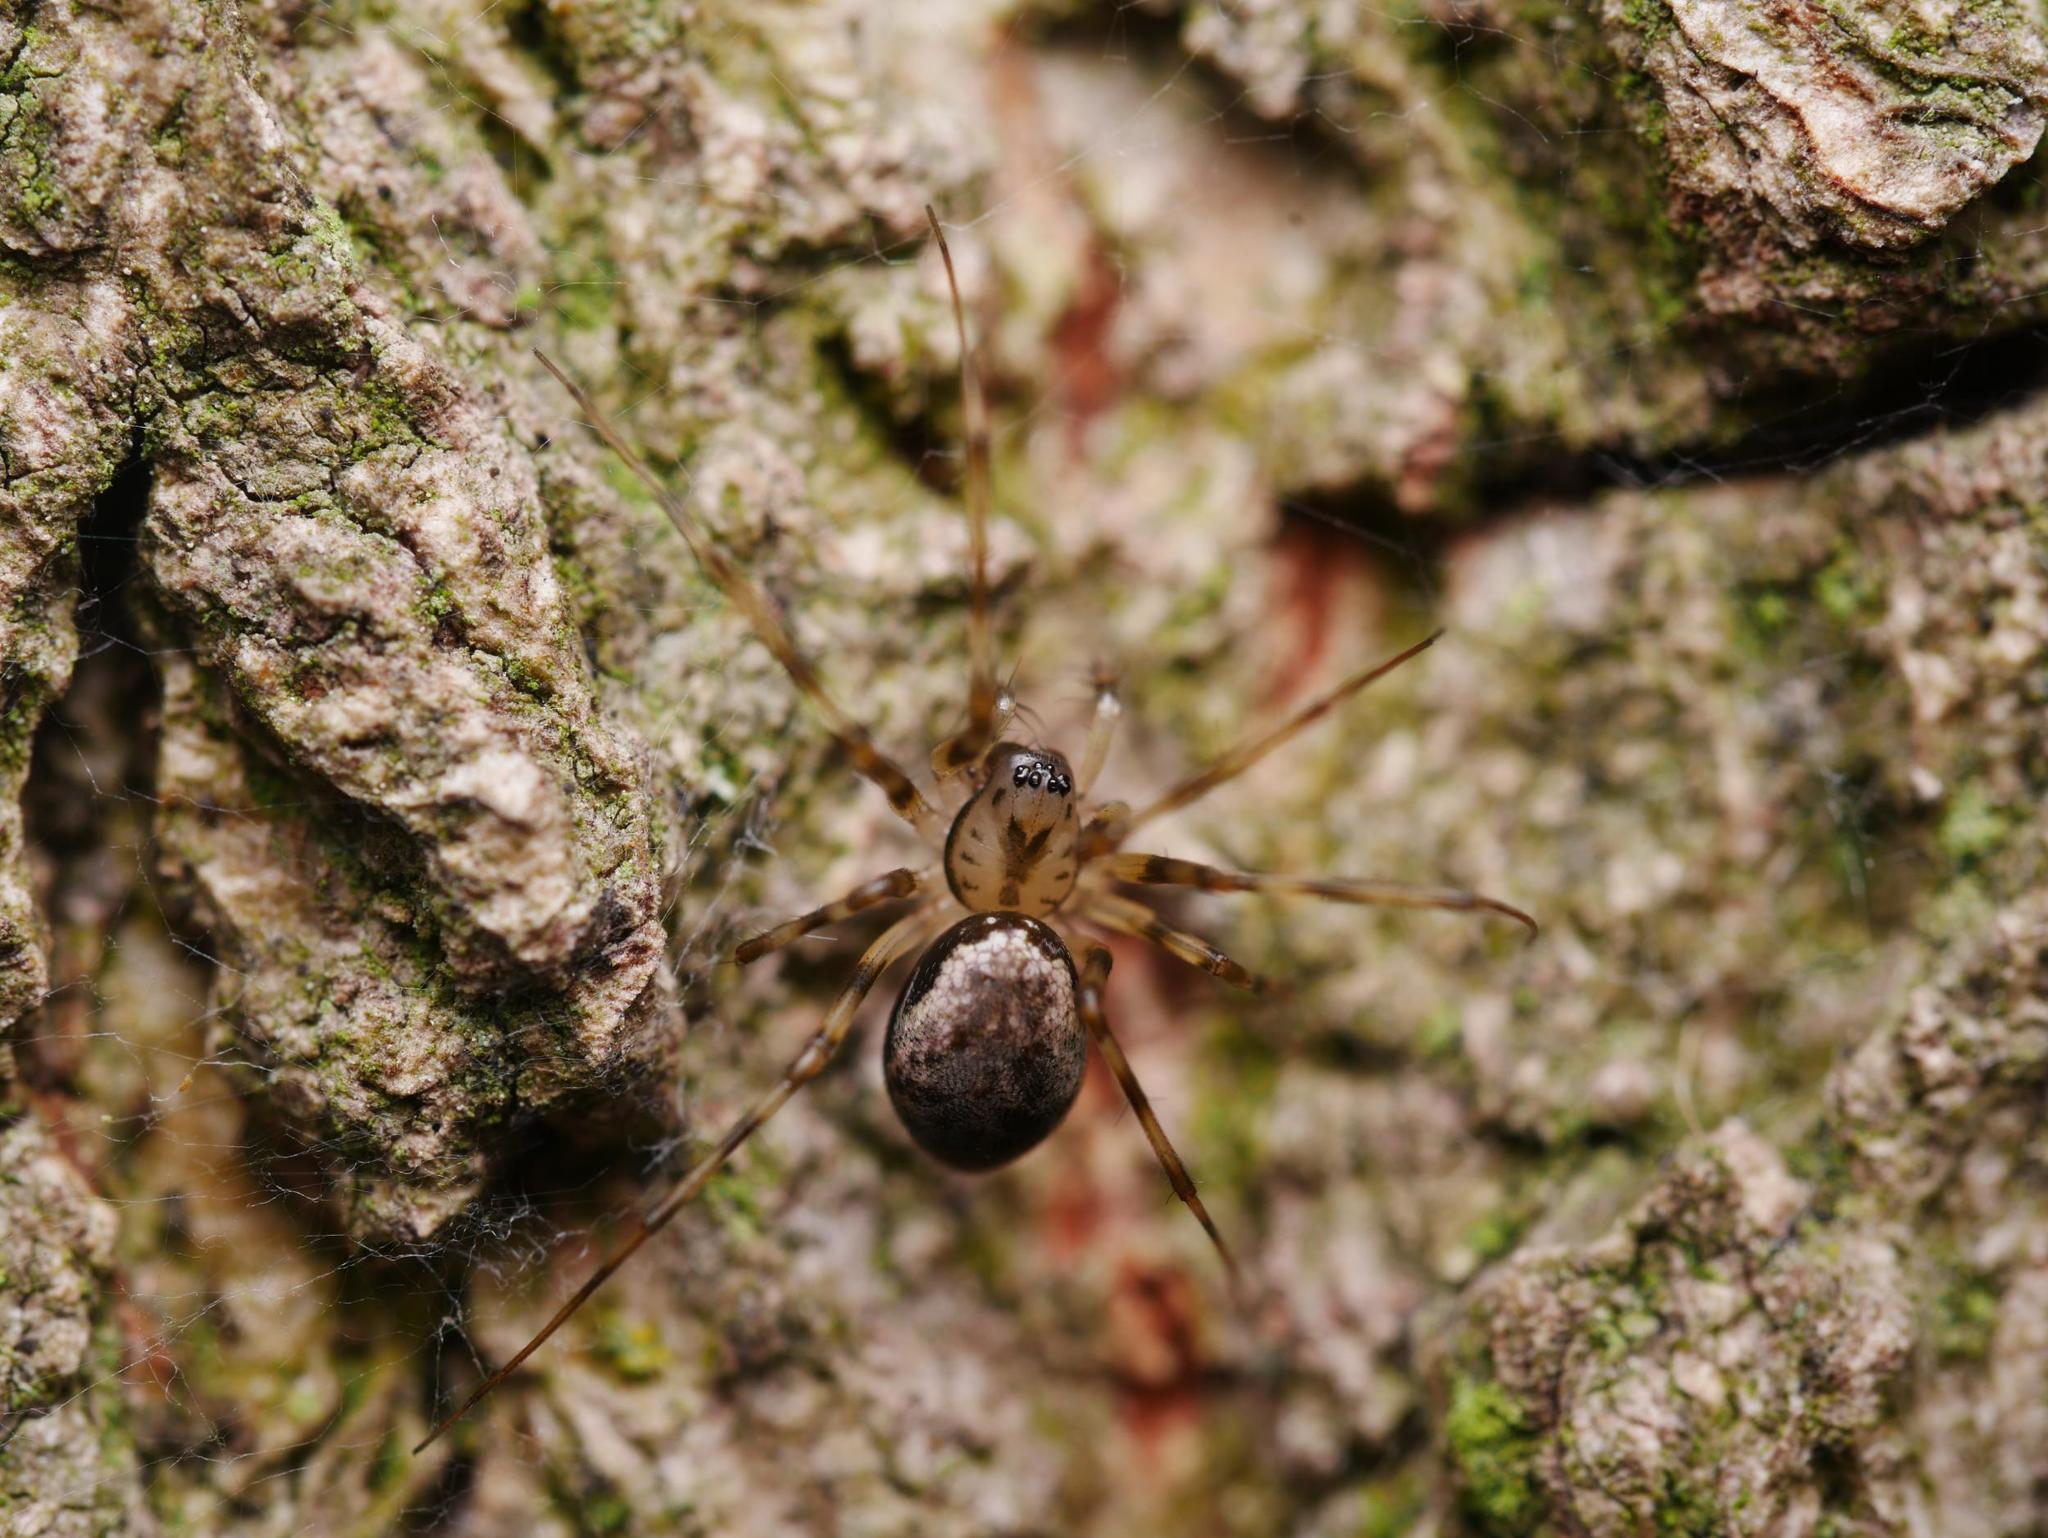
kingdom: Animalia
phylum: Arthropoda
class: Arachnida
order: Araneae
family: Linyphiidae
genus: Drapetisca
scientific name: Drapetisca socialis
